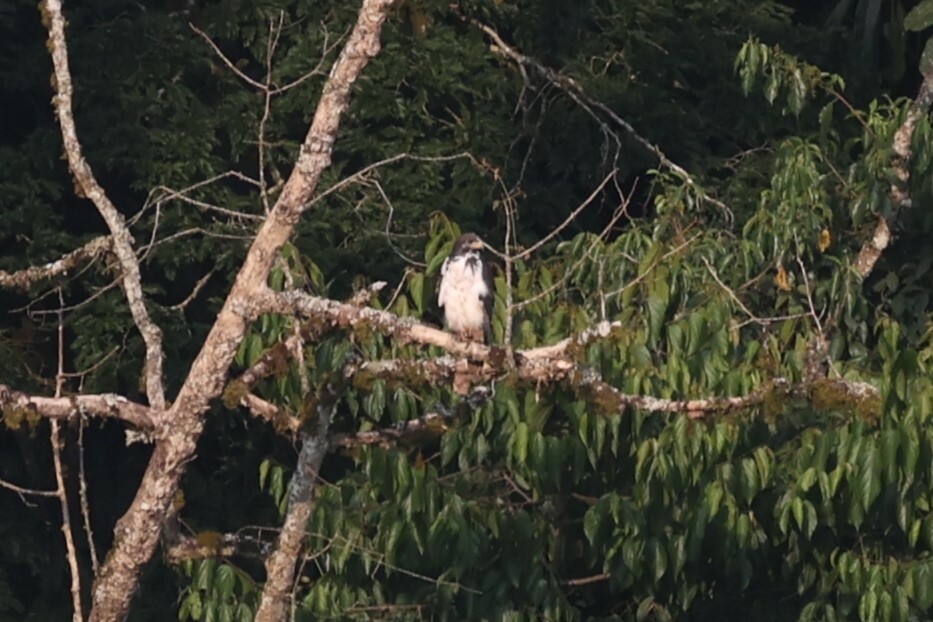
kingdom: Animalia
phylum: Chordata
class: Aves
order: Accipitriformes
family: Accipitridae
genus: Accipiter
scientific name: Accipiter melanoleucus
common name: Black sparrowhawk
